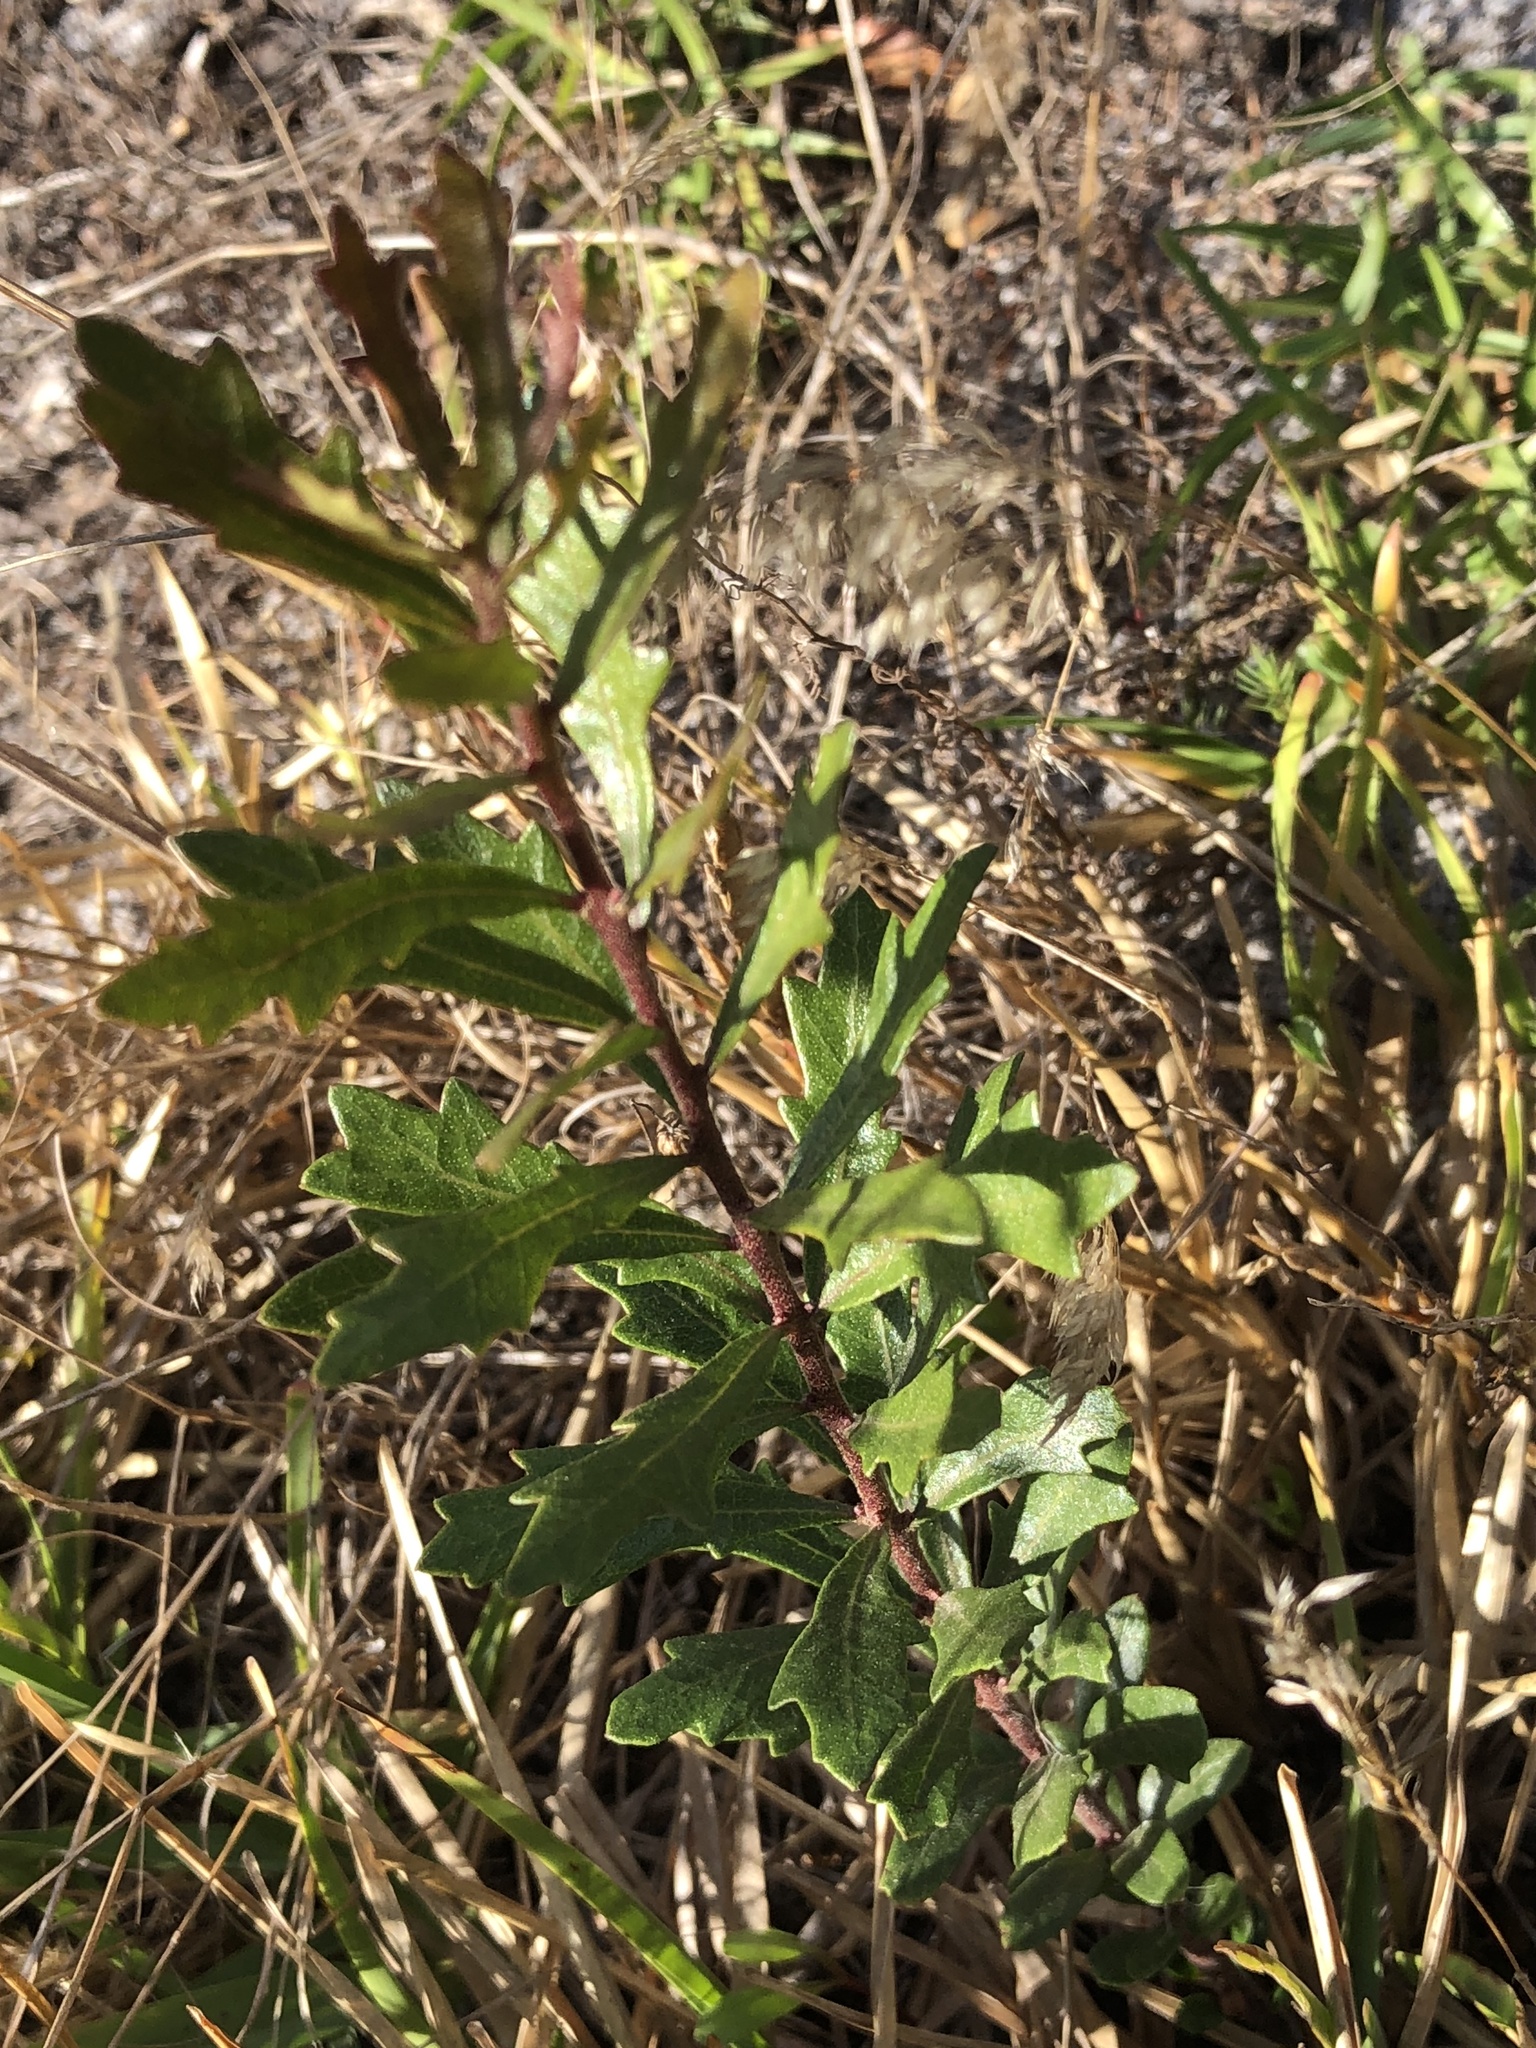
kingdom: Plantae
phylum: Tracheophyta
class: Magnoliopsida
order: Fagales
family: Myricaceae
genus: Morella
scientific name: Morella quercifolia
